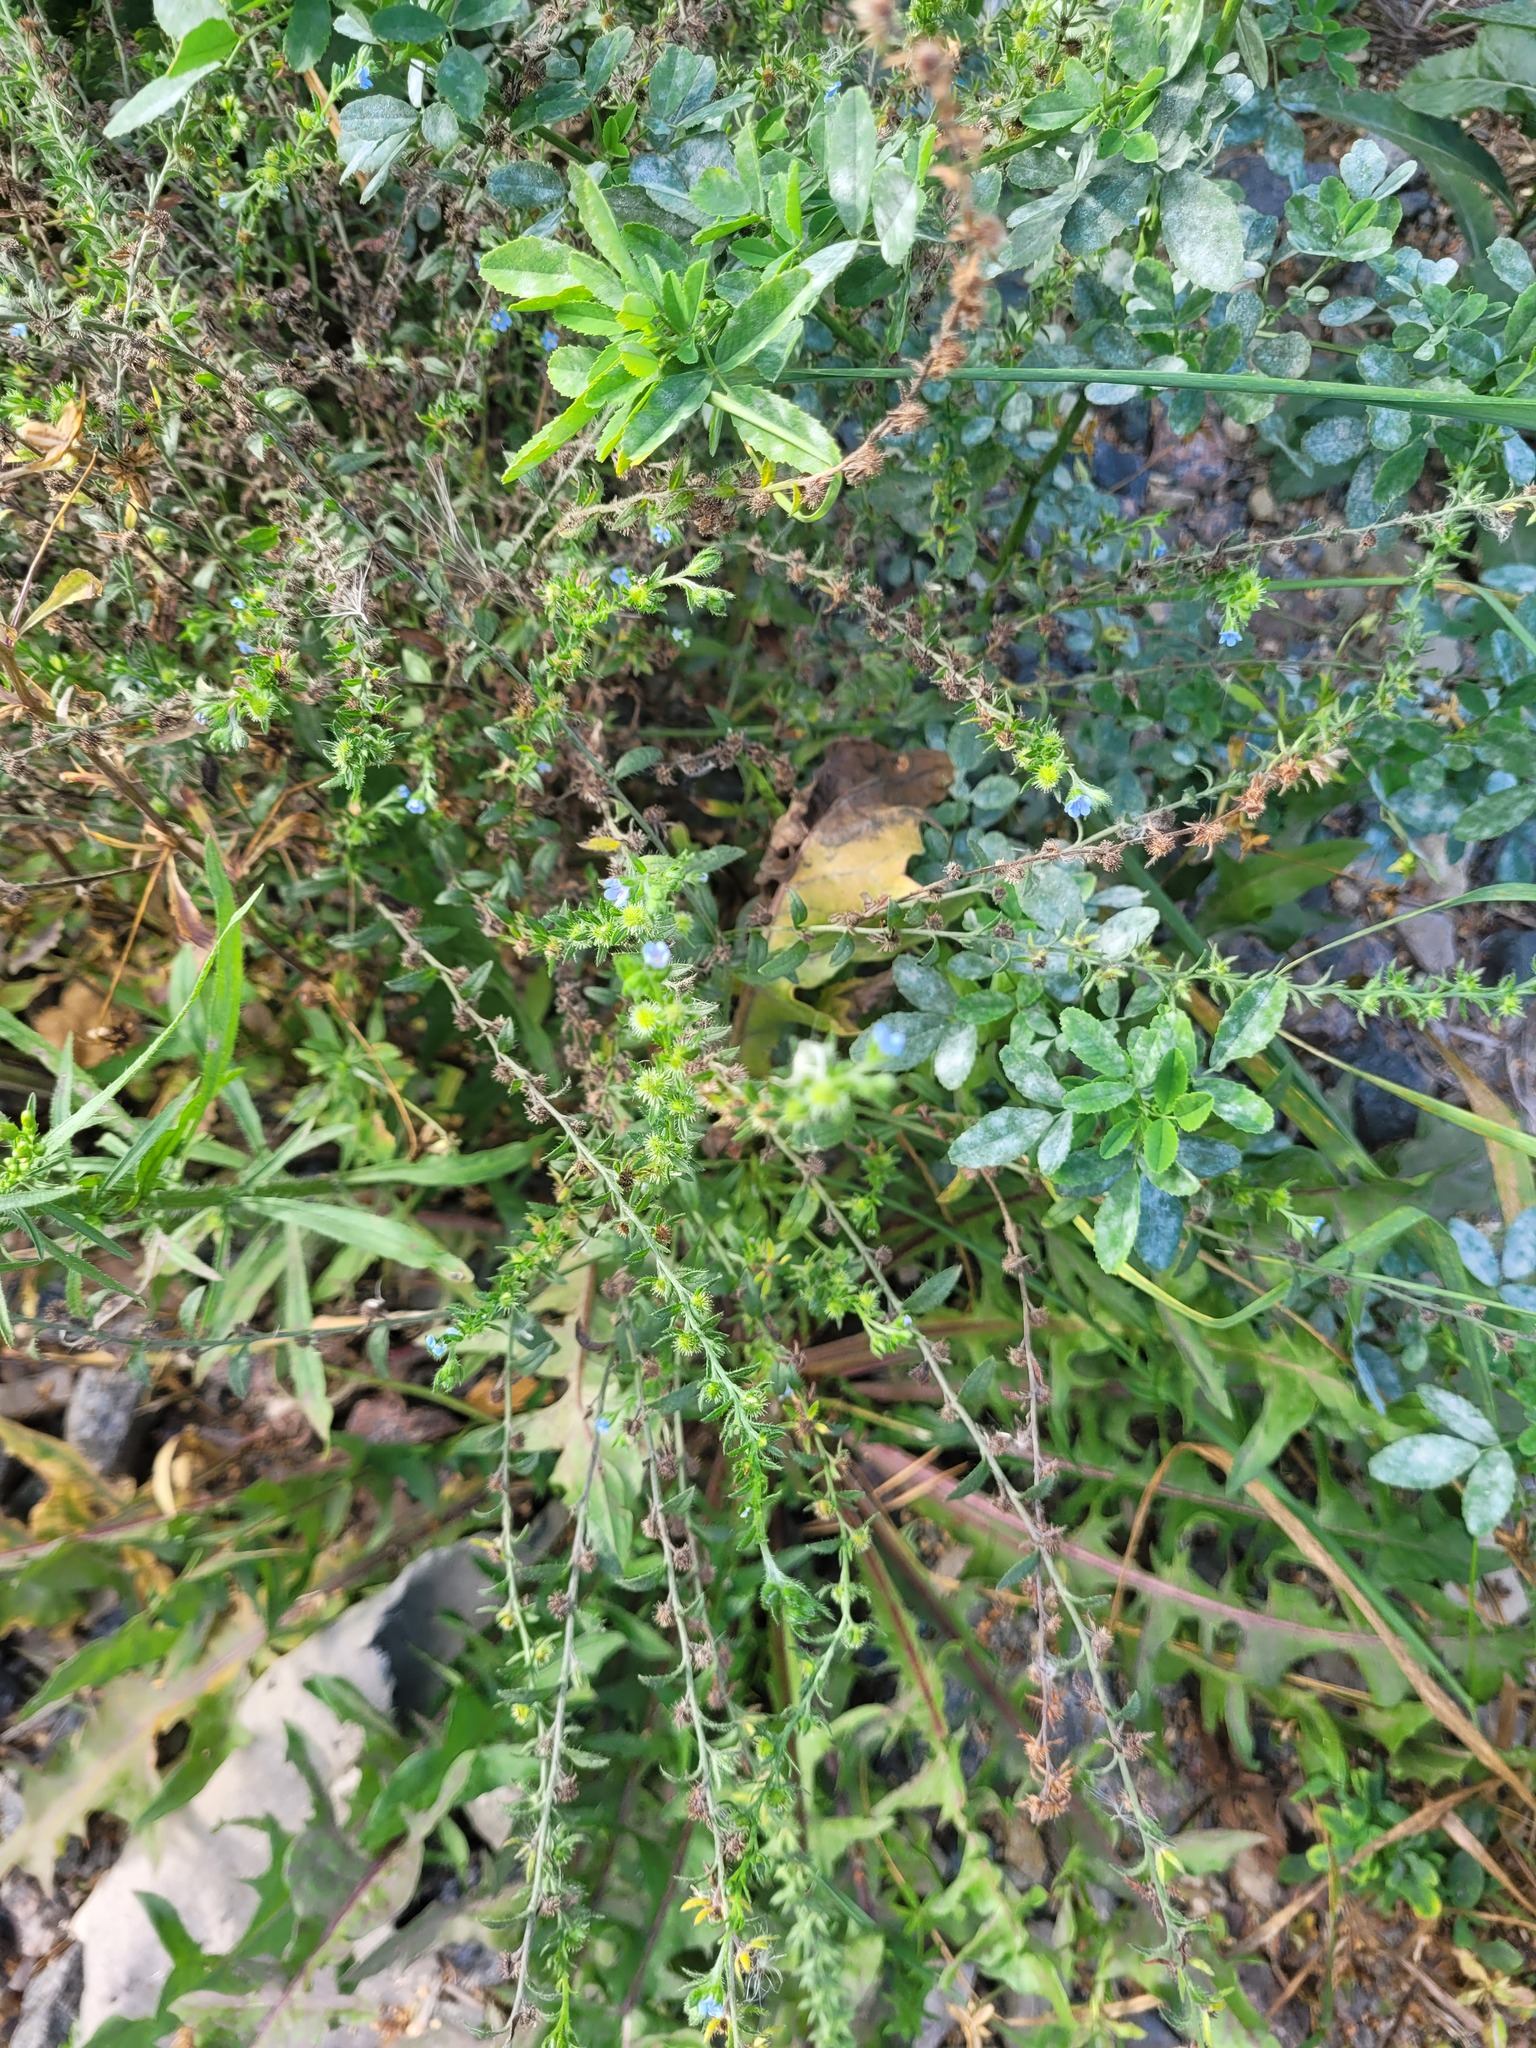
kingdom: Plantae
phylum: Tracheophyta
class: Magnoliopsida
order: Boraginales
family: Boraginaceae
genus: Lappula
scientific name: Lappula squarrosa
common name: European stickseed
